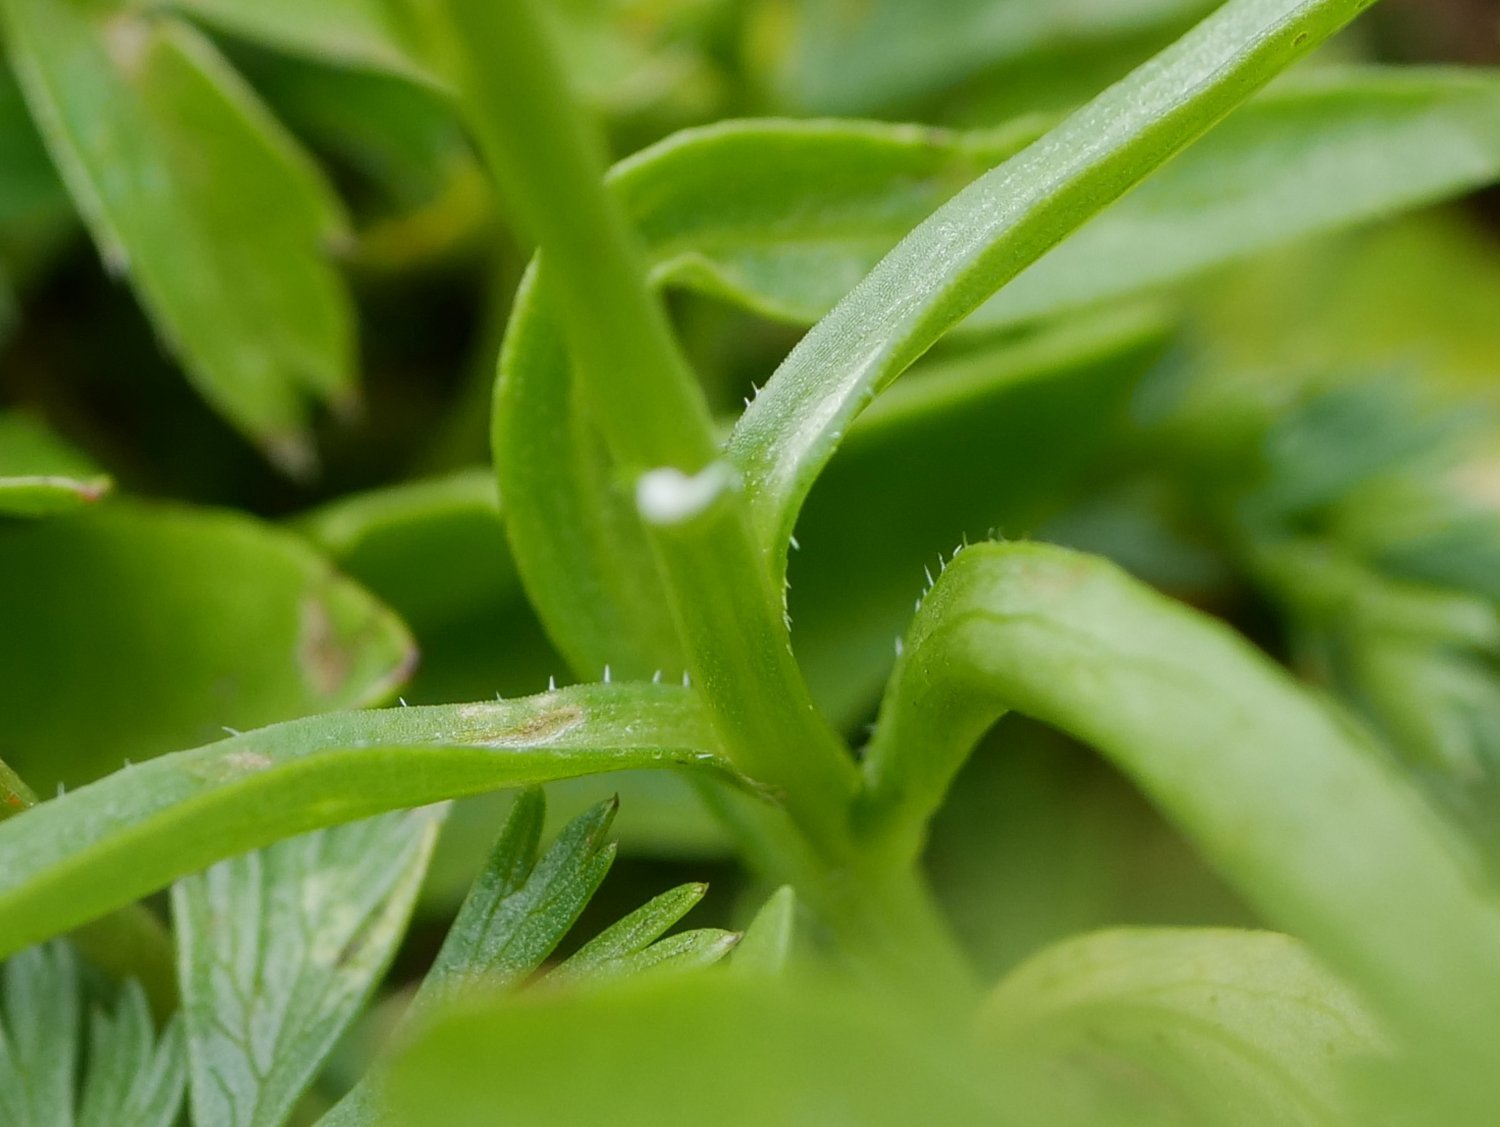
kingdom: Plantae
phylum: Tracheophyta
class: Magnoliopsida
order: Asterales
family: Campanulaceae
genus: Campanula
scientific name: Campanula scheuchzeri
